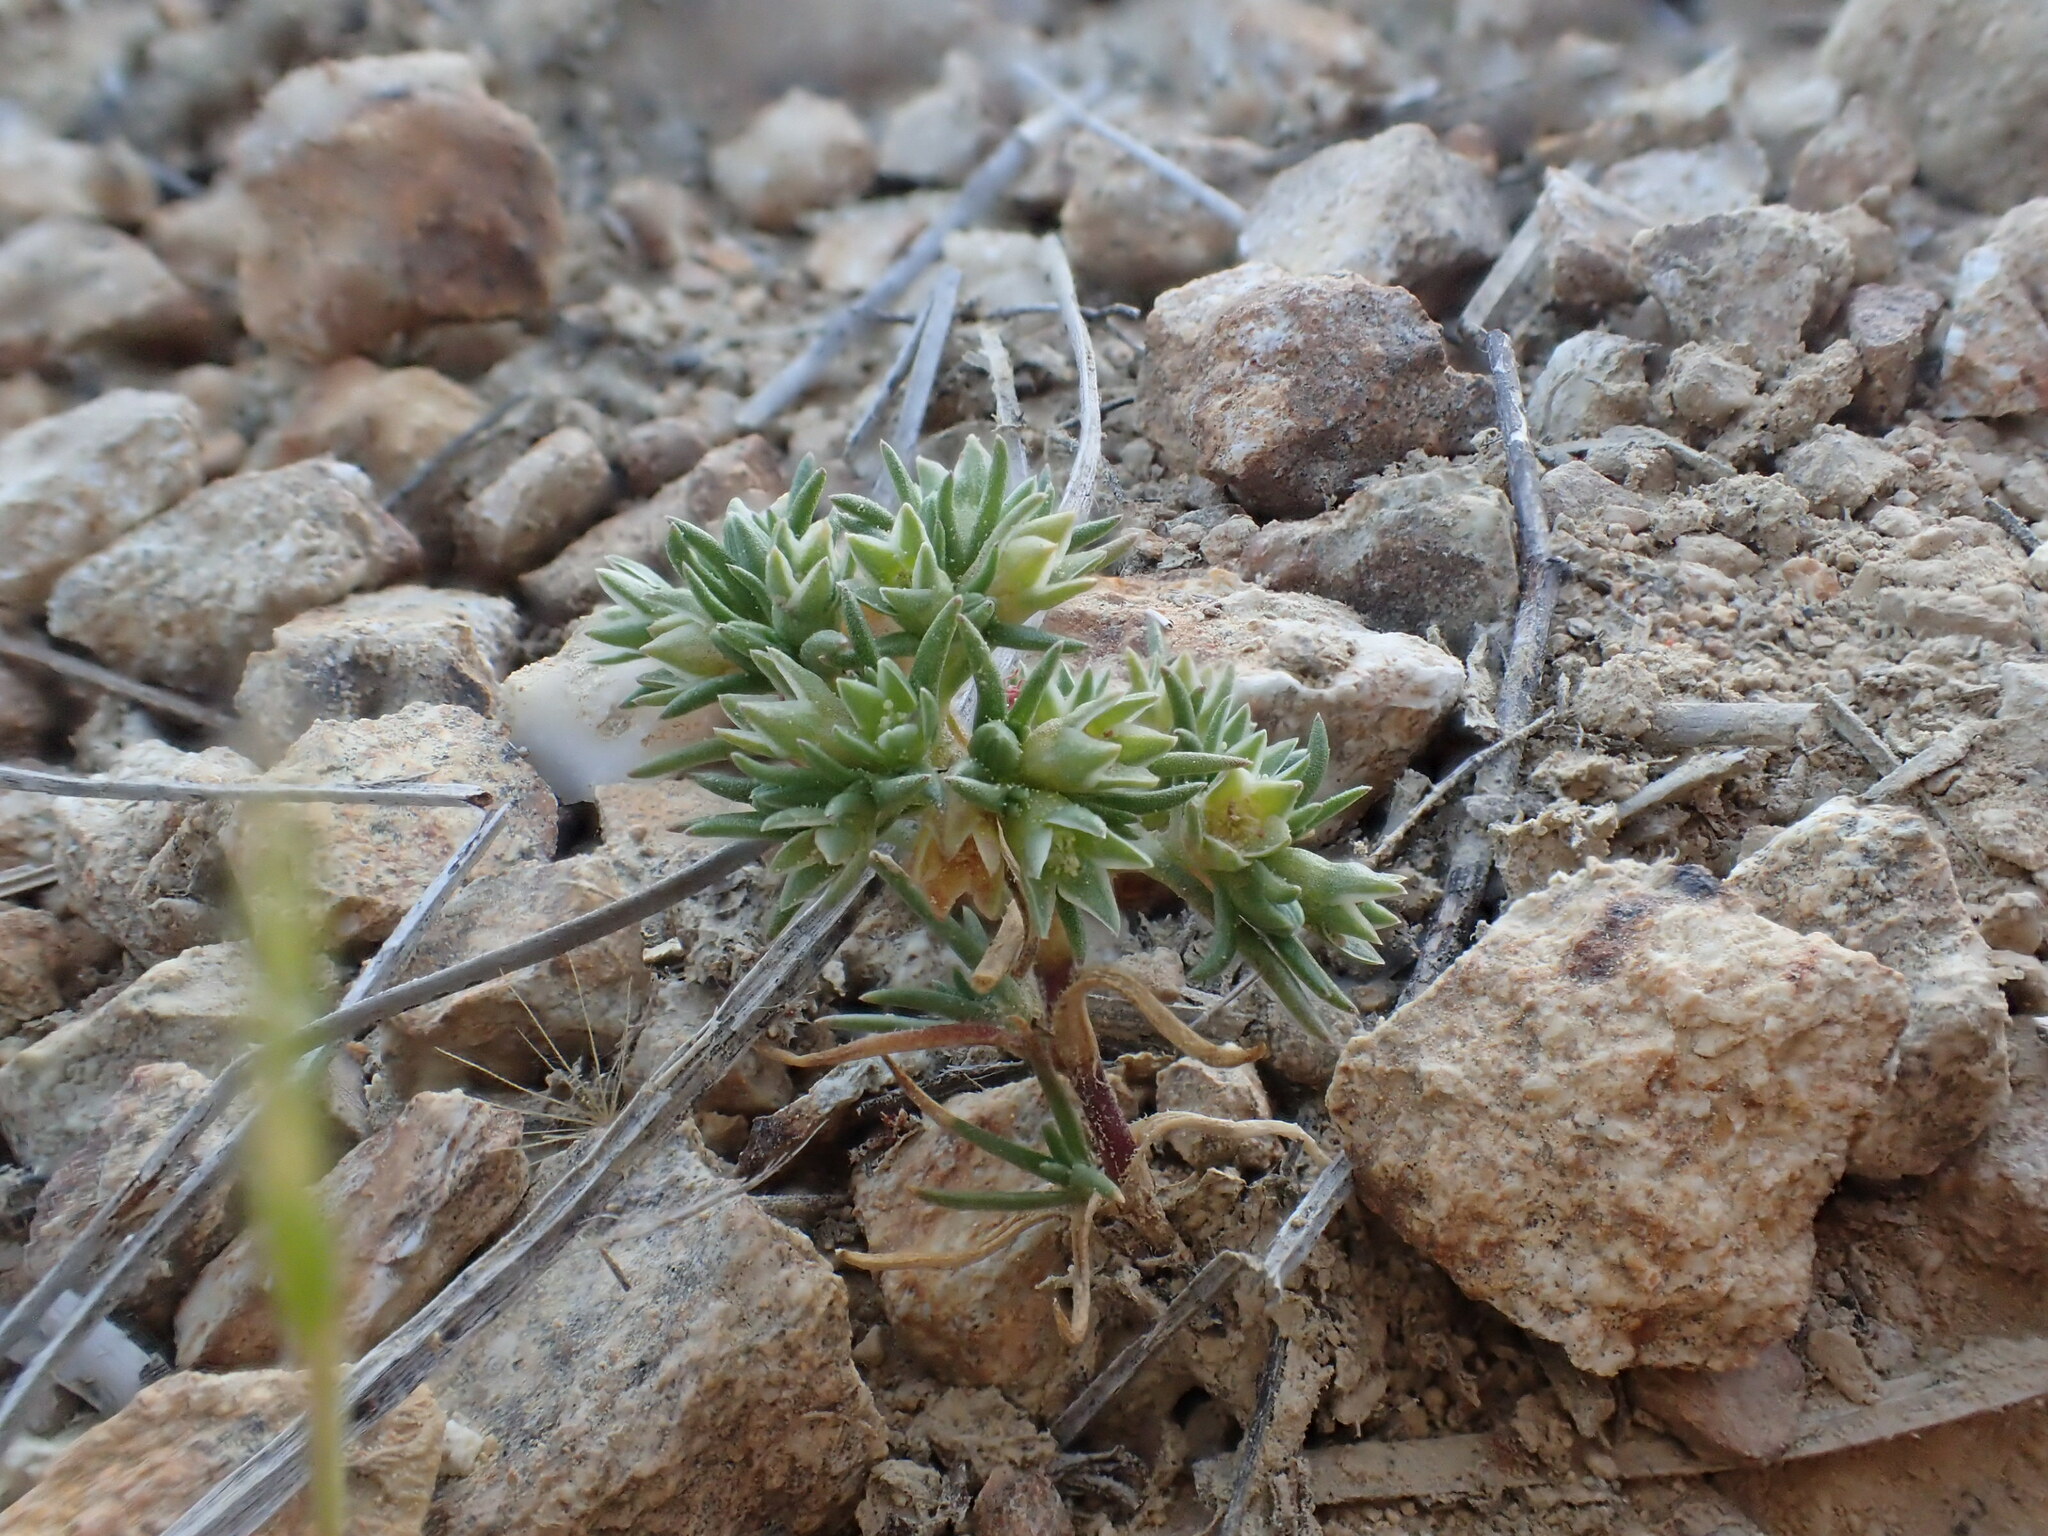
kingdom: Plantae
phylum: Tracheophyta
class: Magnoliopsida
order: Caryophyllales
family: Caryophyllaceae
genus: Scleranthus
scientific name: Scleranthus annuus
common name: Annual knawel
